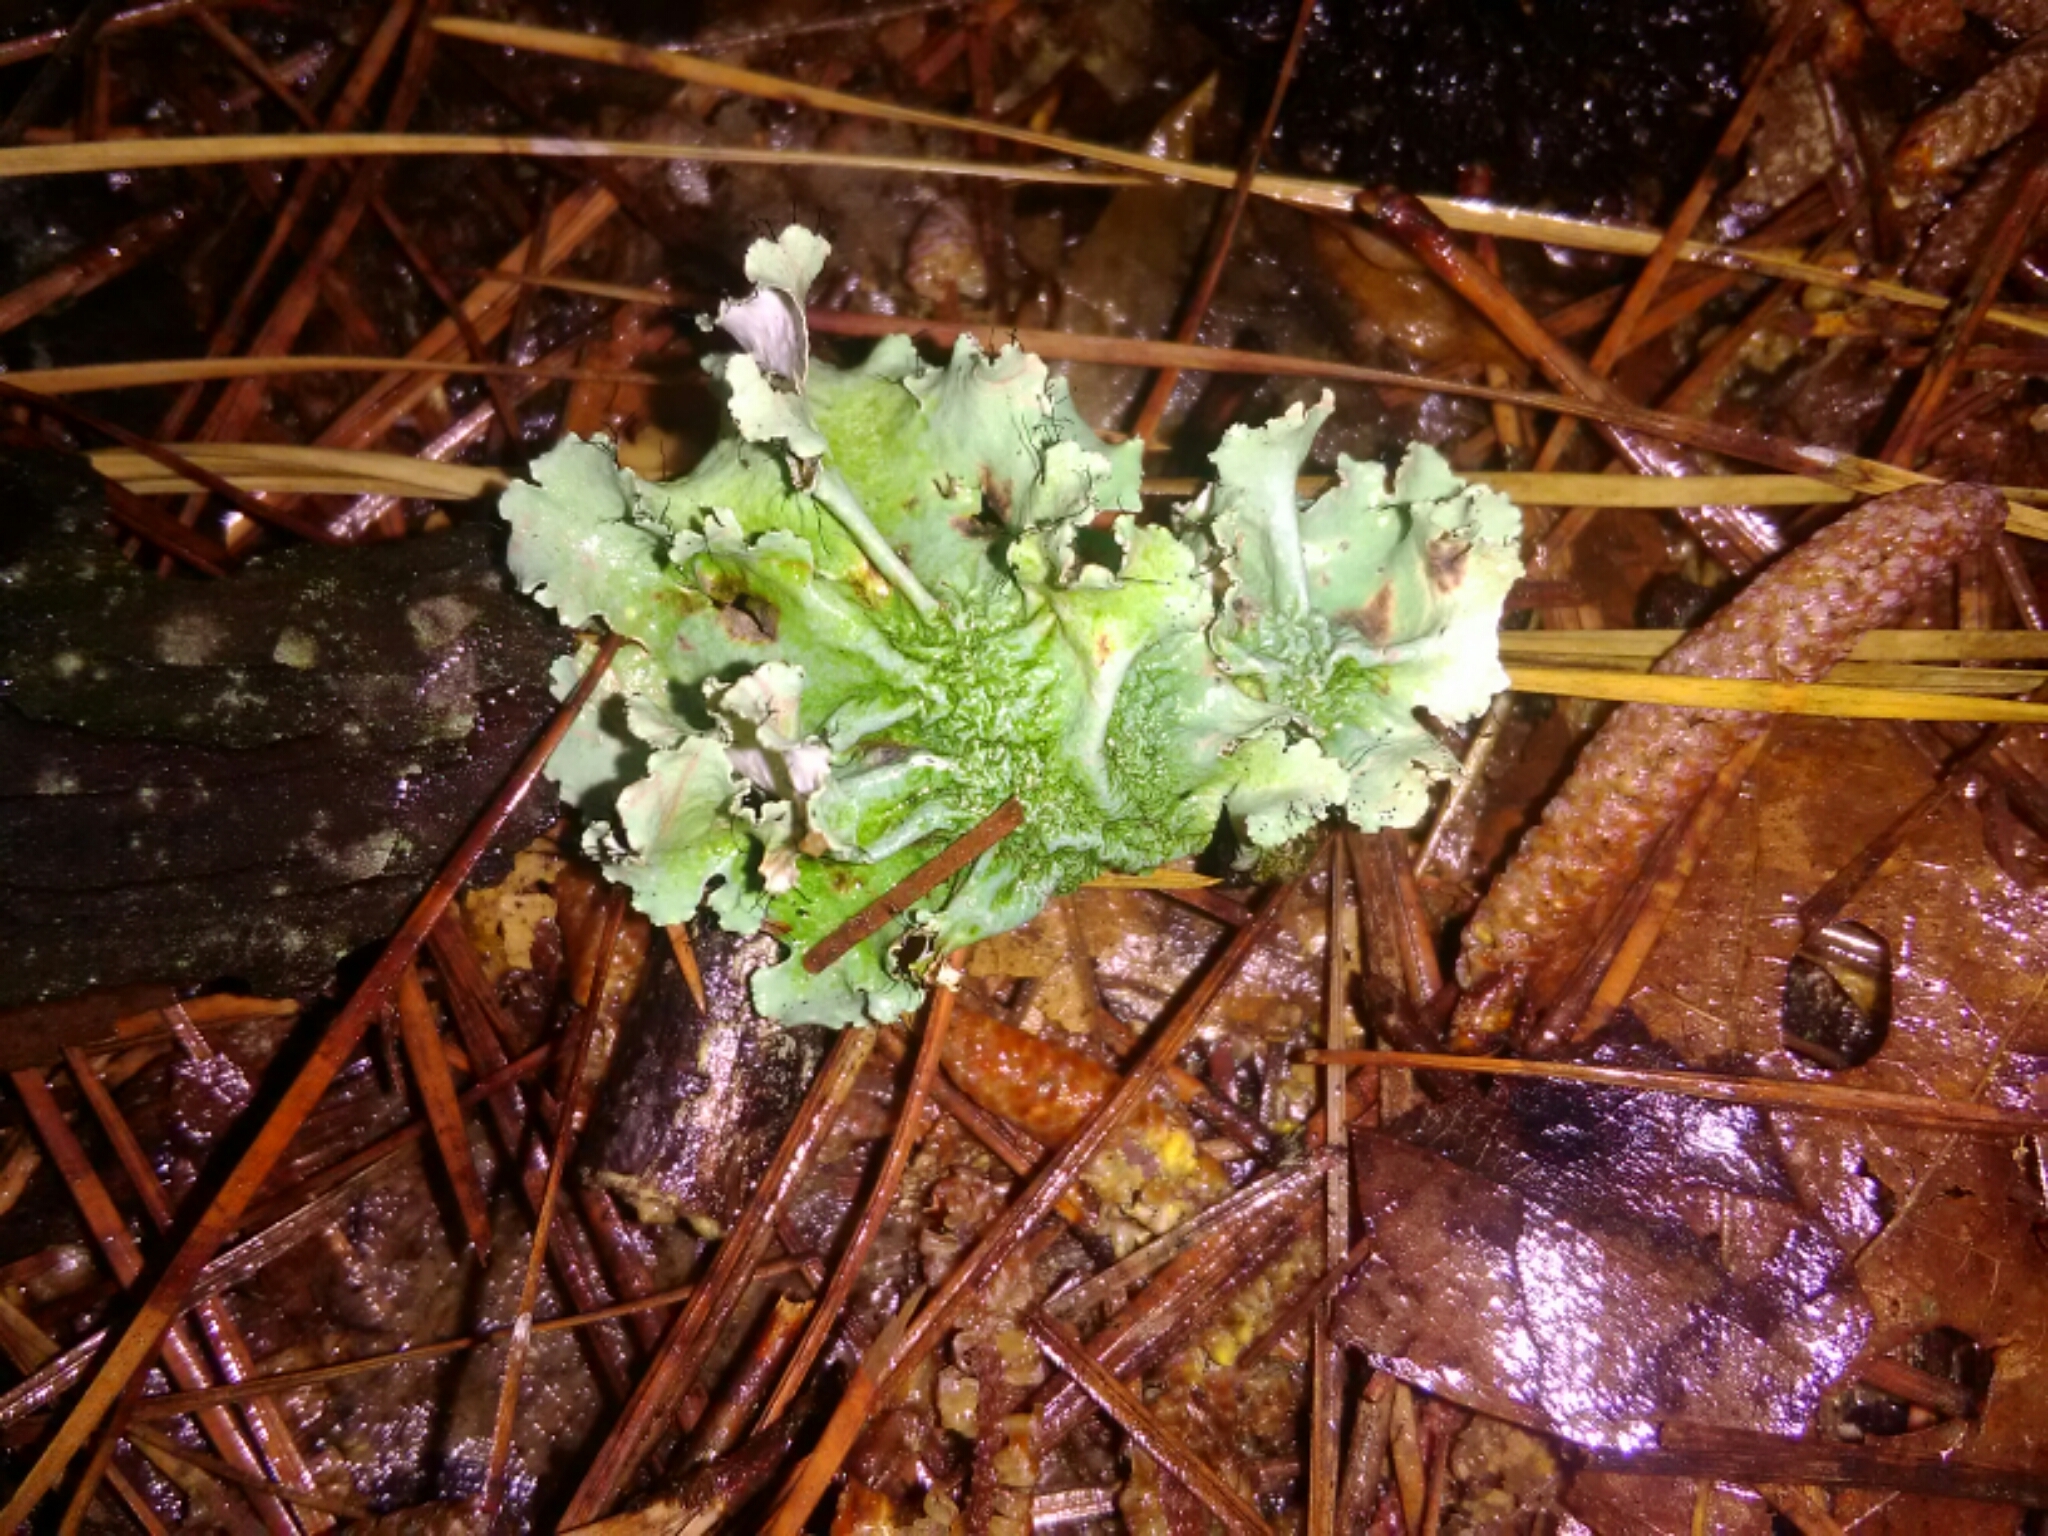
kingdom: Fungi
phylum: Ascomycota
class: Lecanoromycetes
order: Lecanorales
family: Parmeliaceae
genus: Parmotrema
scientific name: Parmotrema hypotropum
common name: Powdered ruffle lichen
